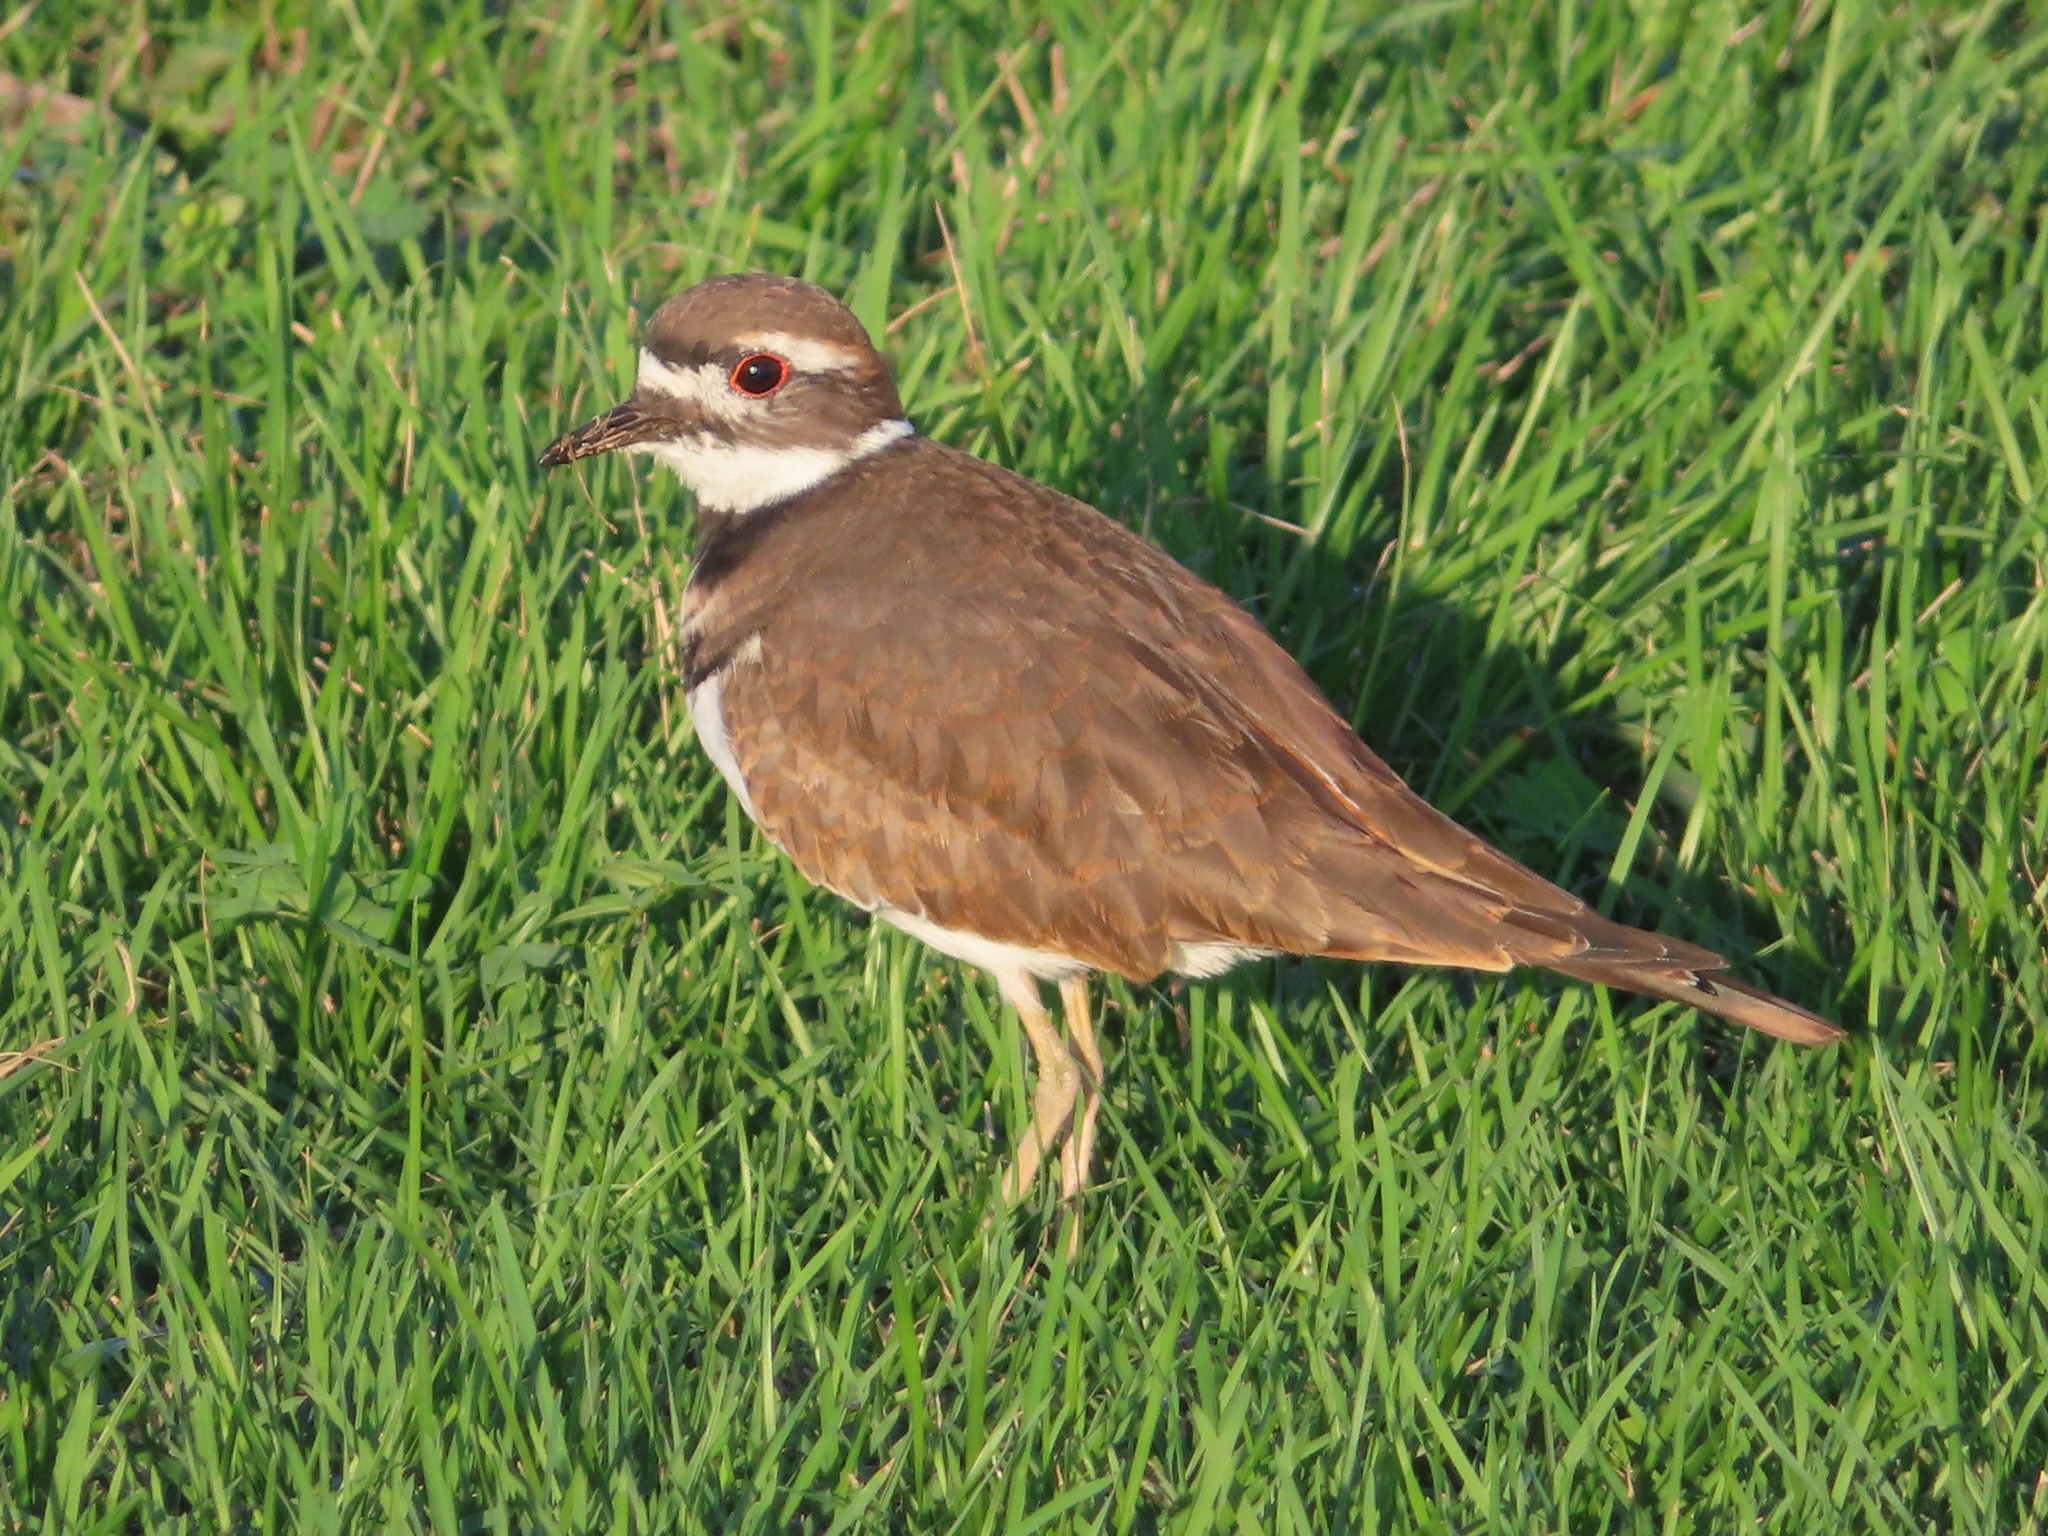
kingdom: Animalia
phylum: Chordata
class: Aves
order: Charadriiformes
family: Charadriidae
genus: Charadrius
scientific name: Charadrius vociferus
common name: Killdeer
